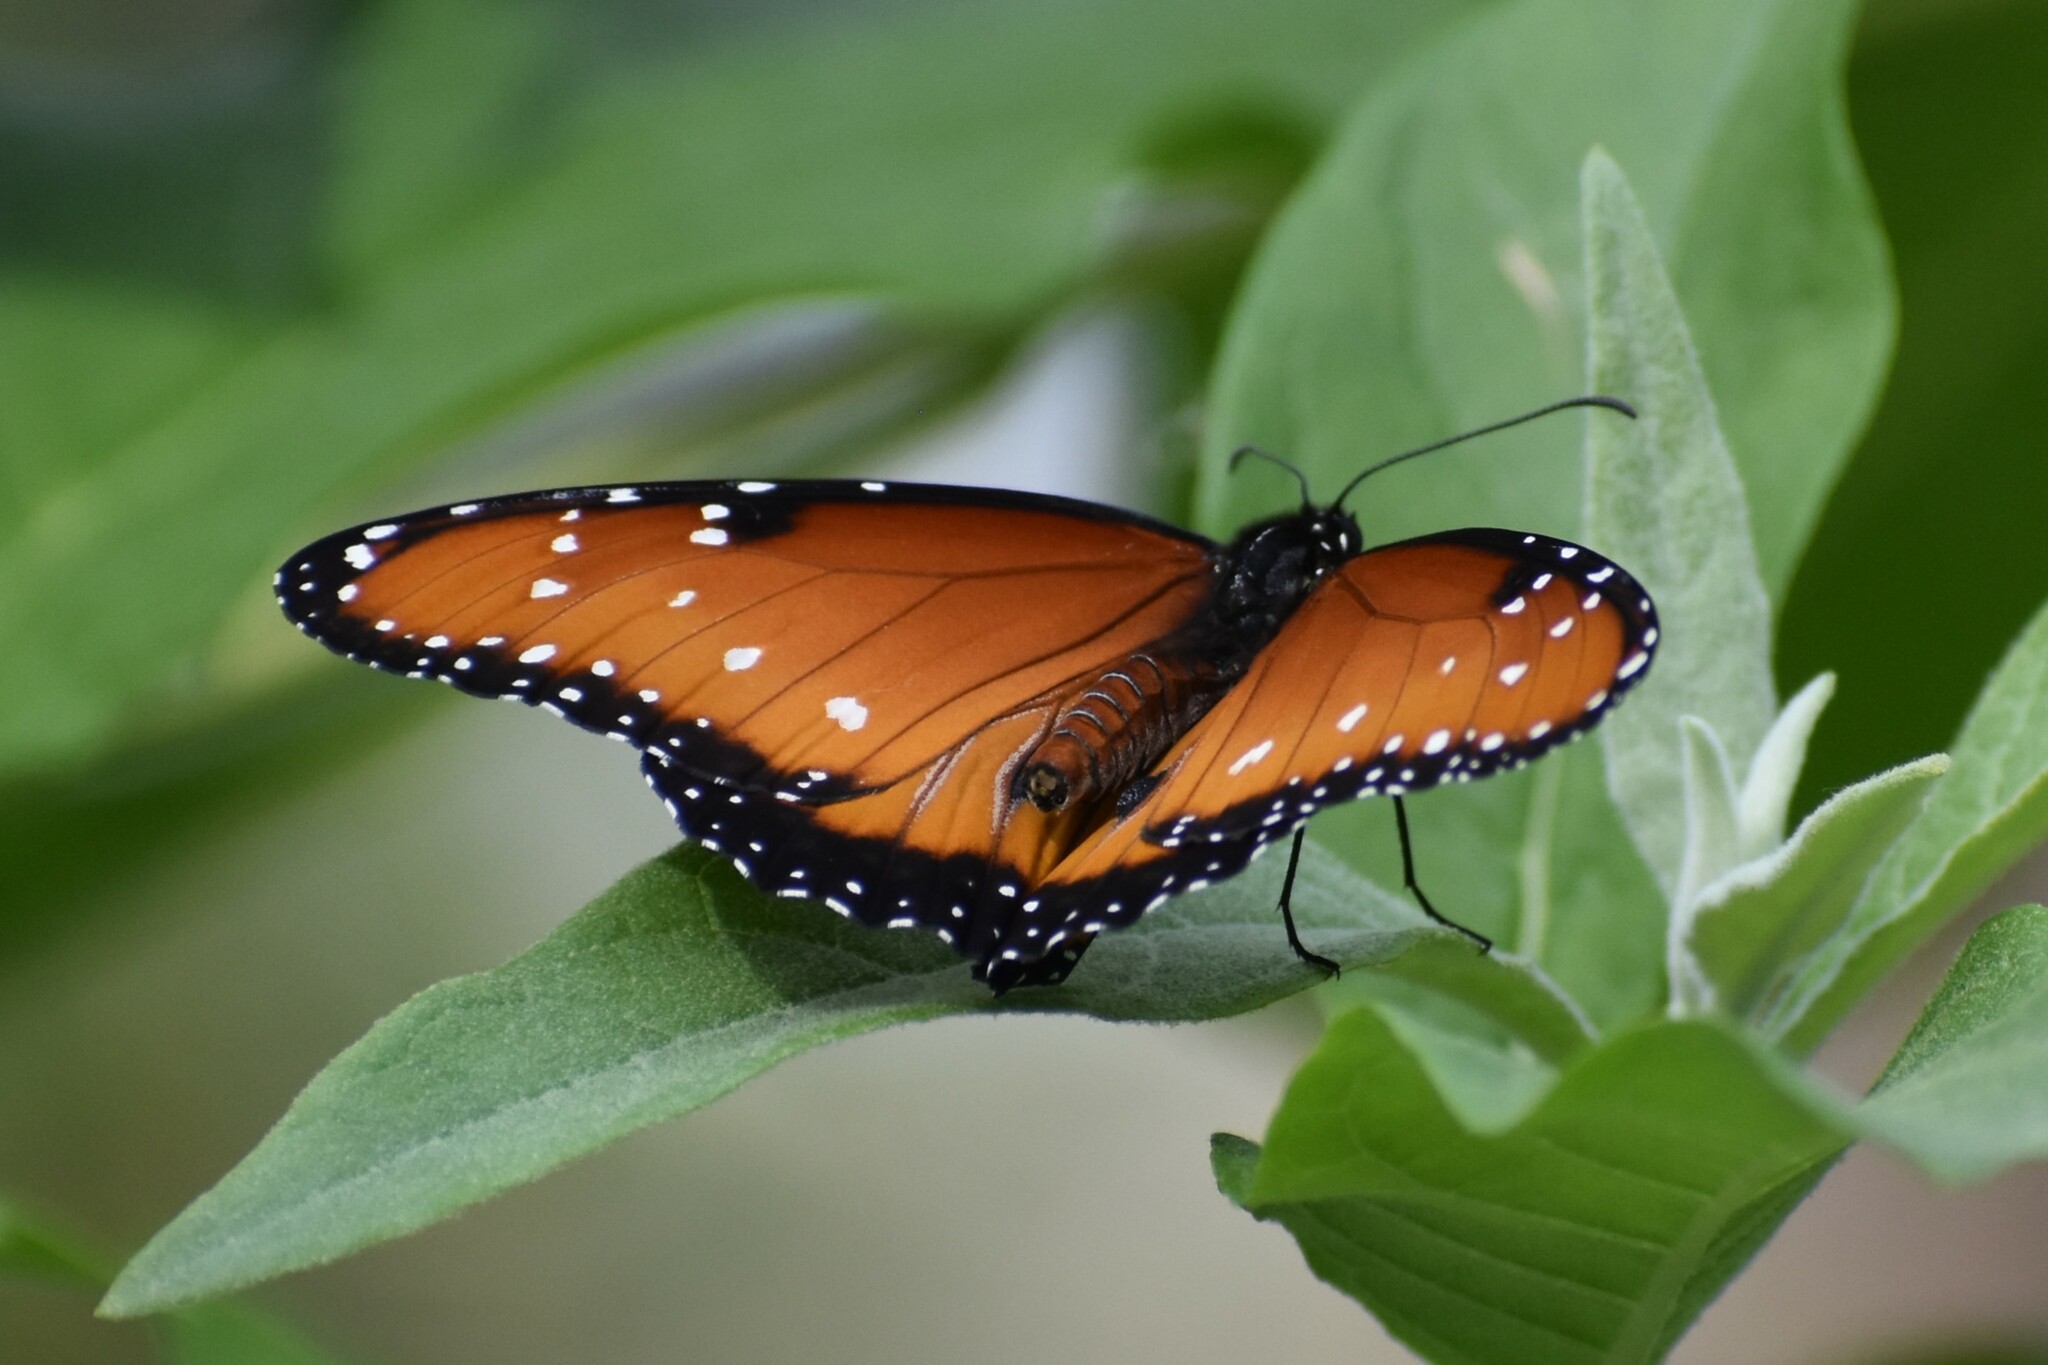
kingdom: Animalia
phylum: Arthropoda
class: Insecta
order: Lepidoptera
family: Nymphalidae
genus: Danaus
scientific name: Danaus gilippus
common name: Queen
